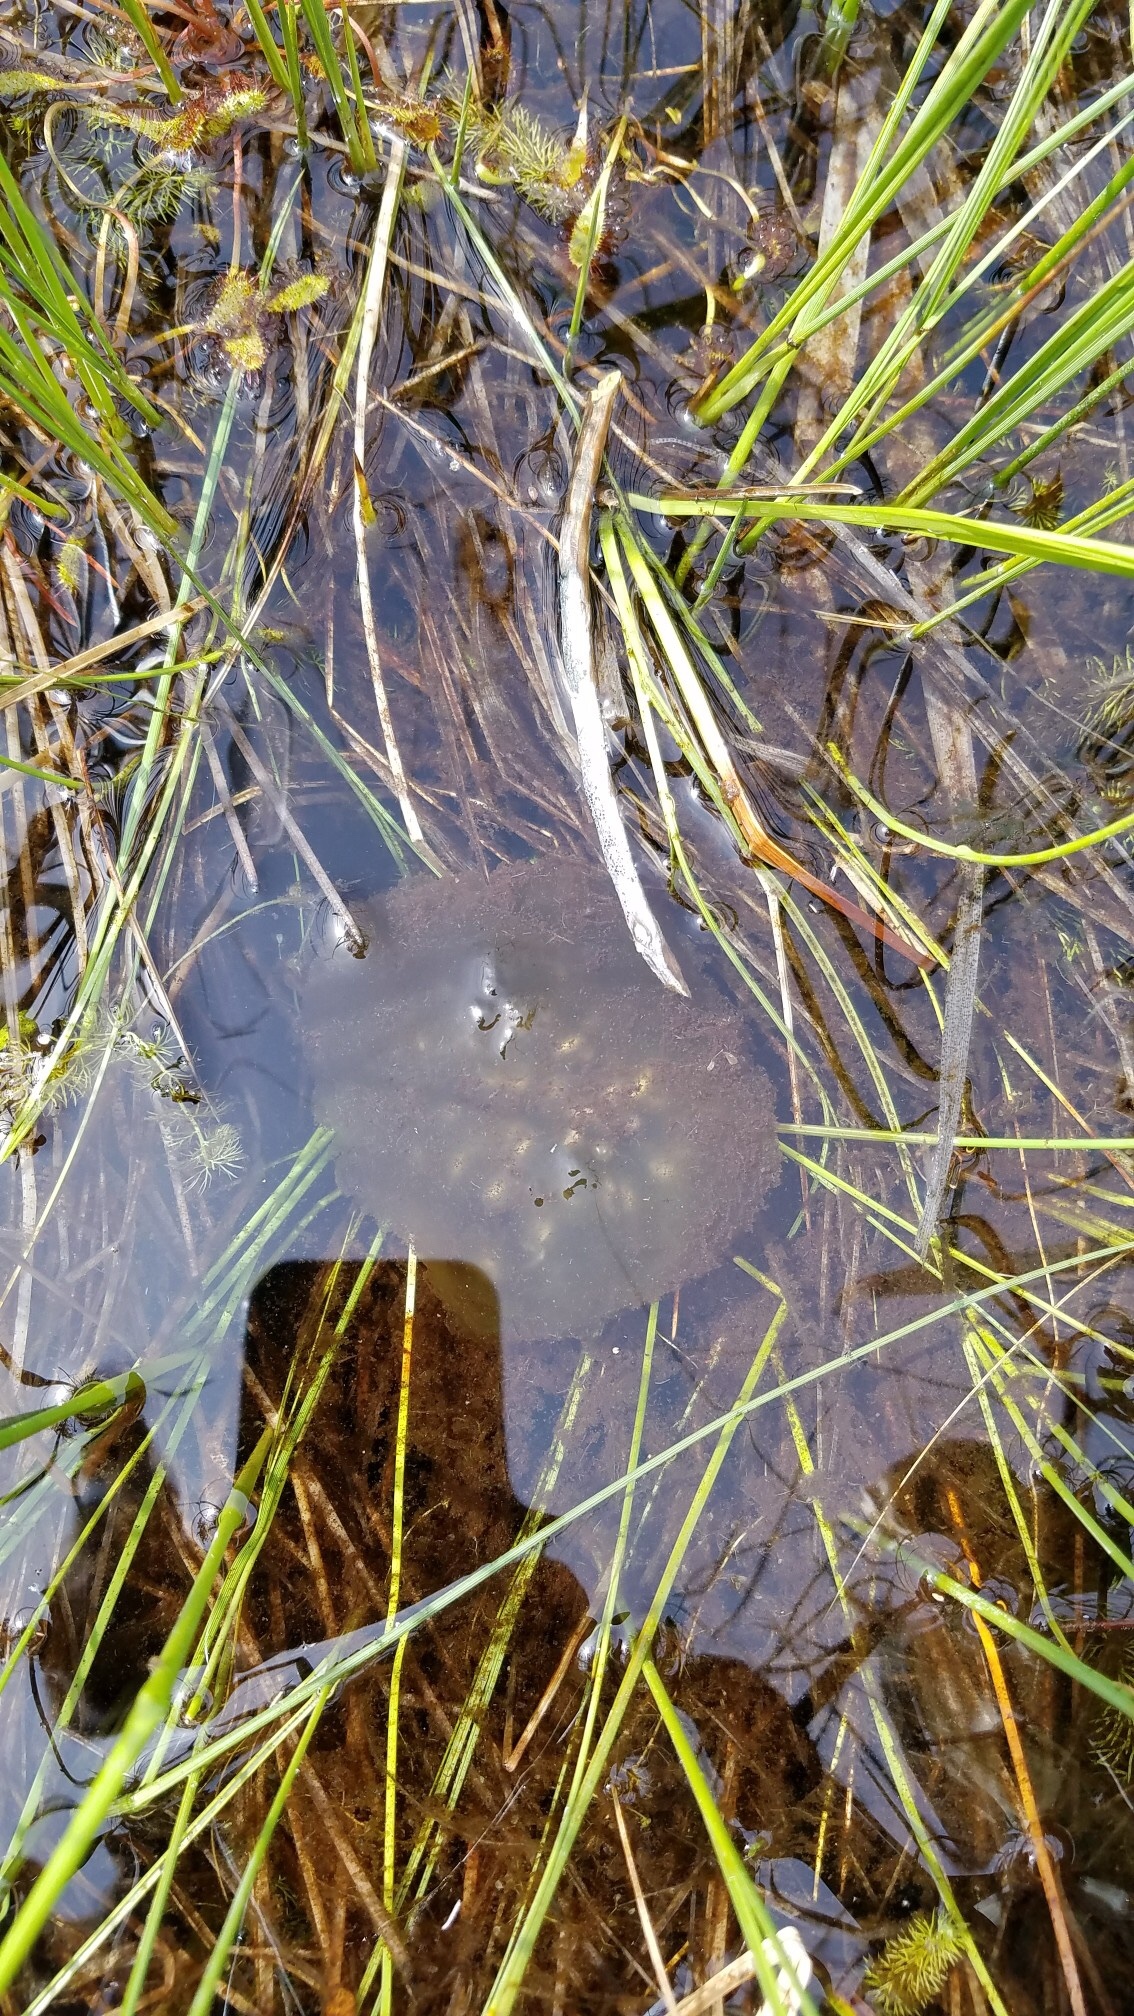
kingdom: Animalia
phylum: Chordata
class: Amphibia
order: Caudata
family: Ambystomatidae
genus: Ambystoma
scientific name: Ambystoma gracile
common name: Northwestern salamander
